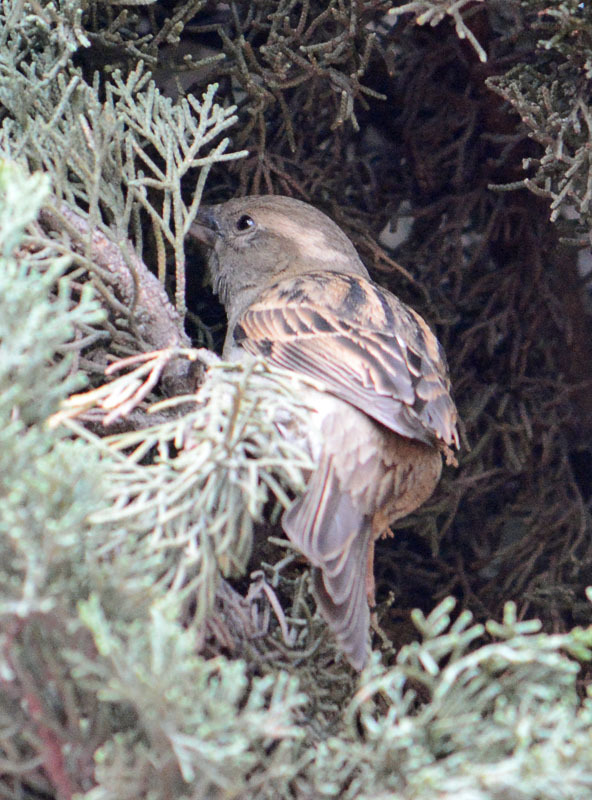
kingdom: Animalia
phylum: Chordata
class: Aves
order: Passeriformes
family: Passeridae
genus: Passer
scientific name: Passer domesticus
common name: House sparrow
